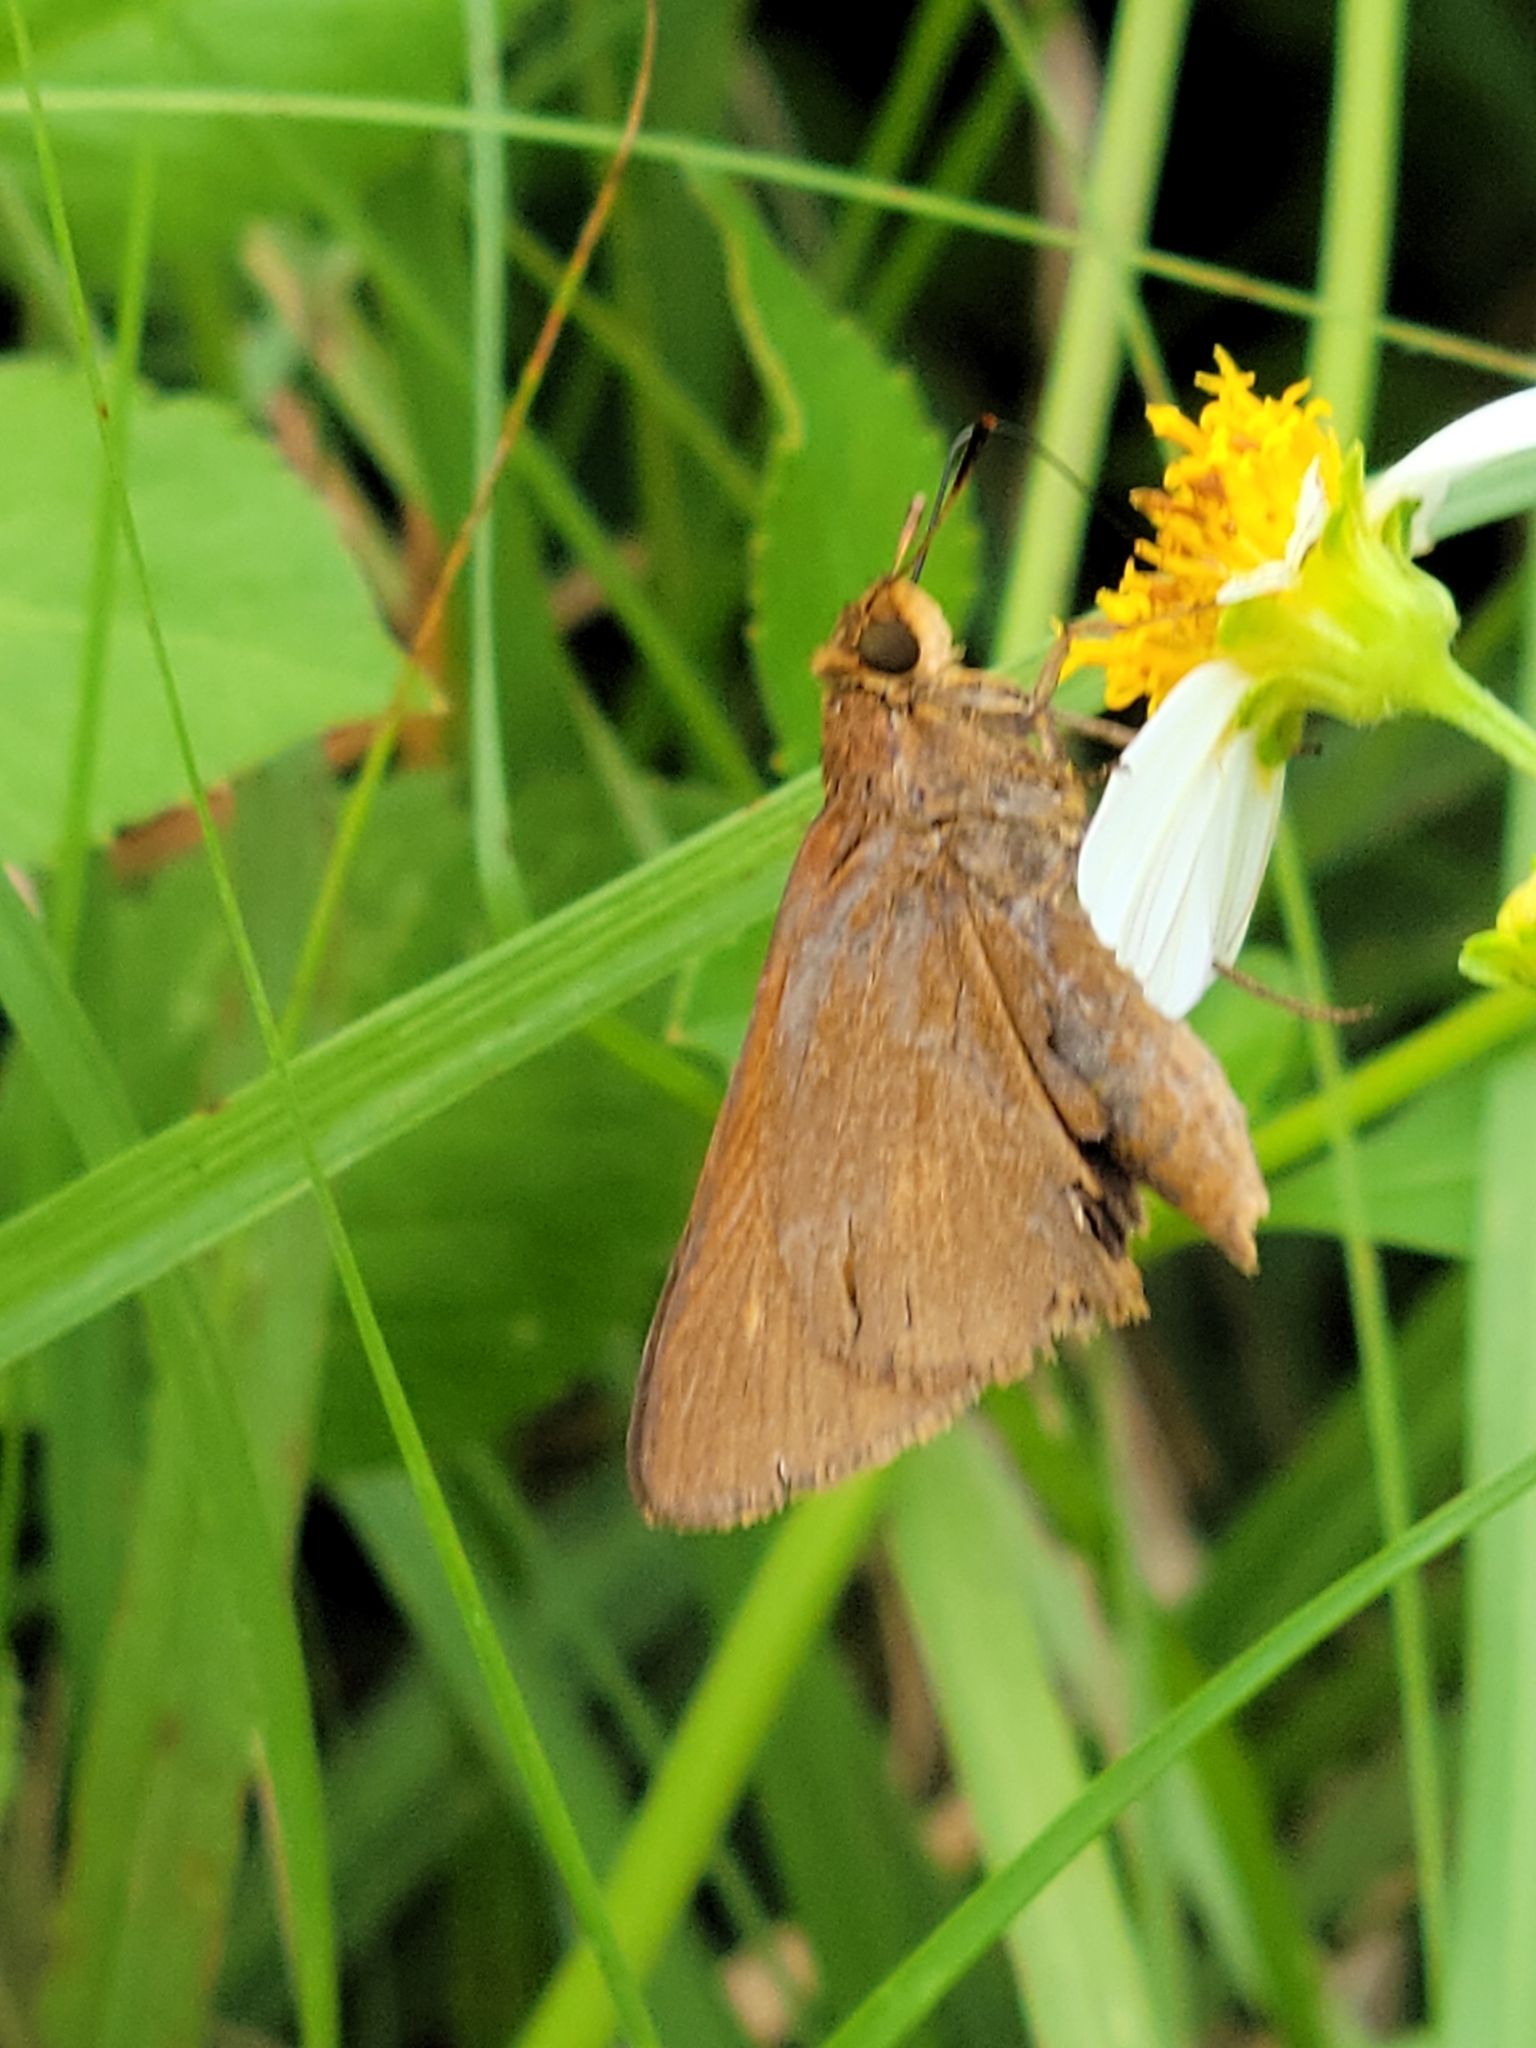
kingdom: Animalia
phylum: Arthropoda
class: Insecta
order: Lepidoptera
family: Hesperiidae
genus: Euphyes
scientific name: Euphyes pilatka
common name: Palatka skipper
